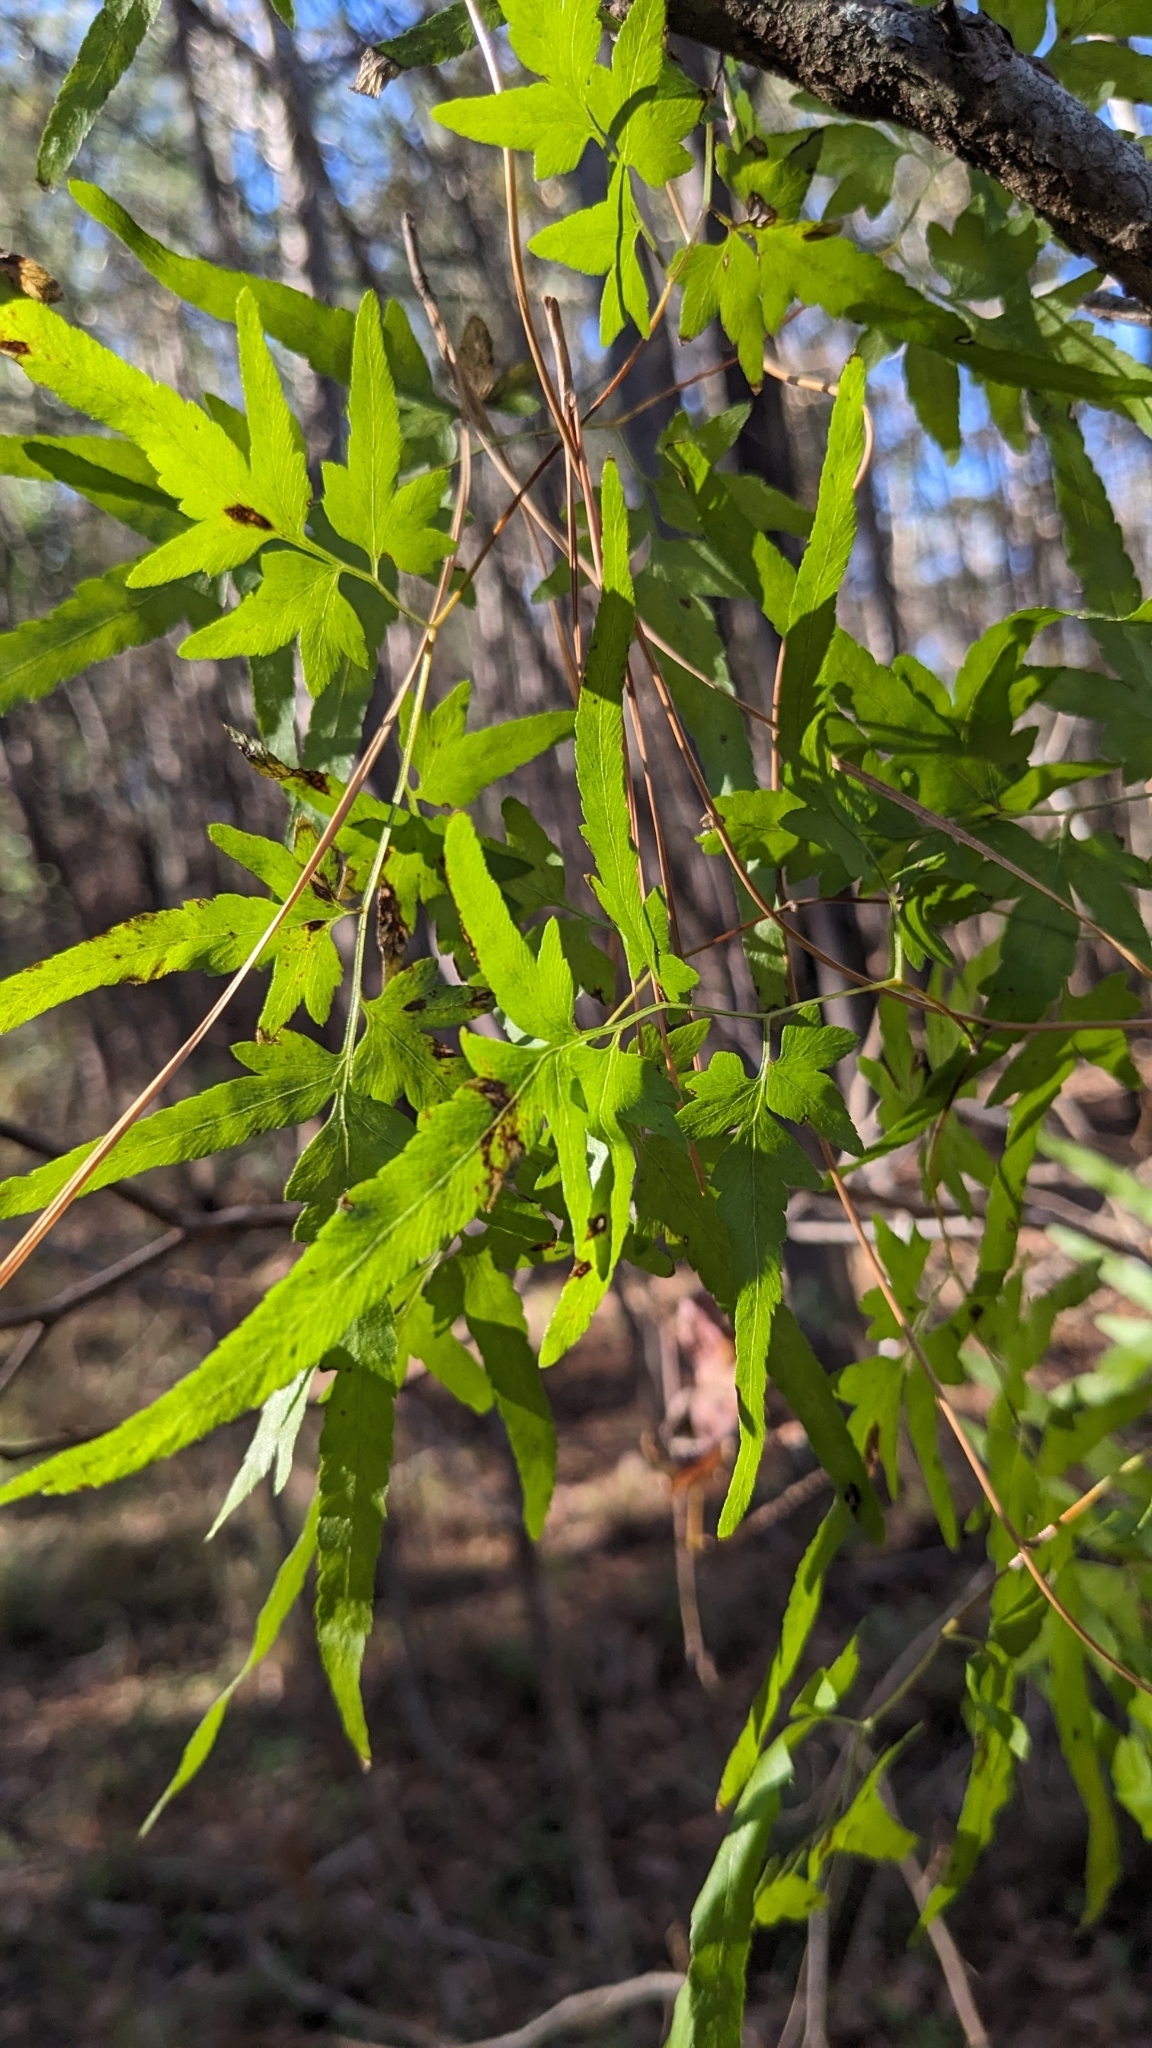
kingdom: Plantae
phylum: Tracheophyta
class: Polypodiopsida
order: Schizaeales
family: Lygodiaceae
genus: Lygodium
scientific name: Lygodium japonicum
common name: Japanese climbing fern
